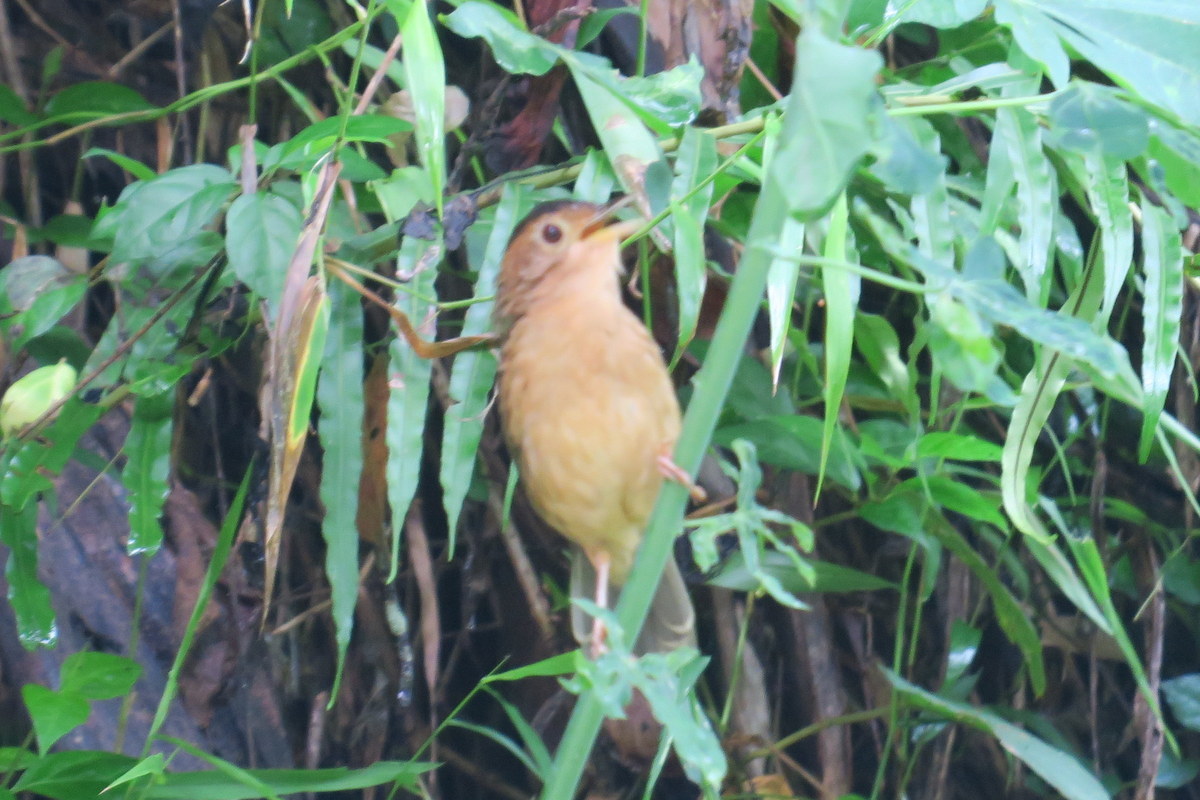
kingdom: Animalia
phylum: Chordata
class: Aves
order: Passeriformes
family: Pellorneidae
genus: Pellorneum
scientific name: Pellorneum fuscocapillus
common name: Brown-capped babbler
